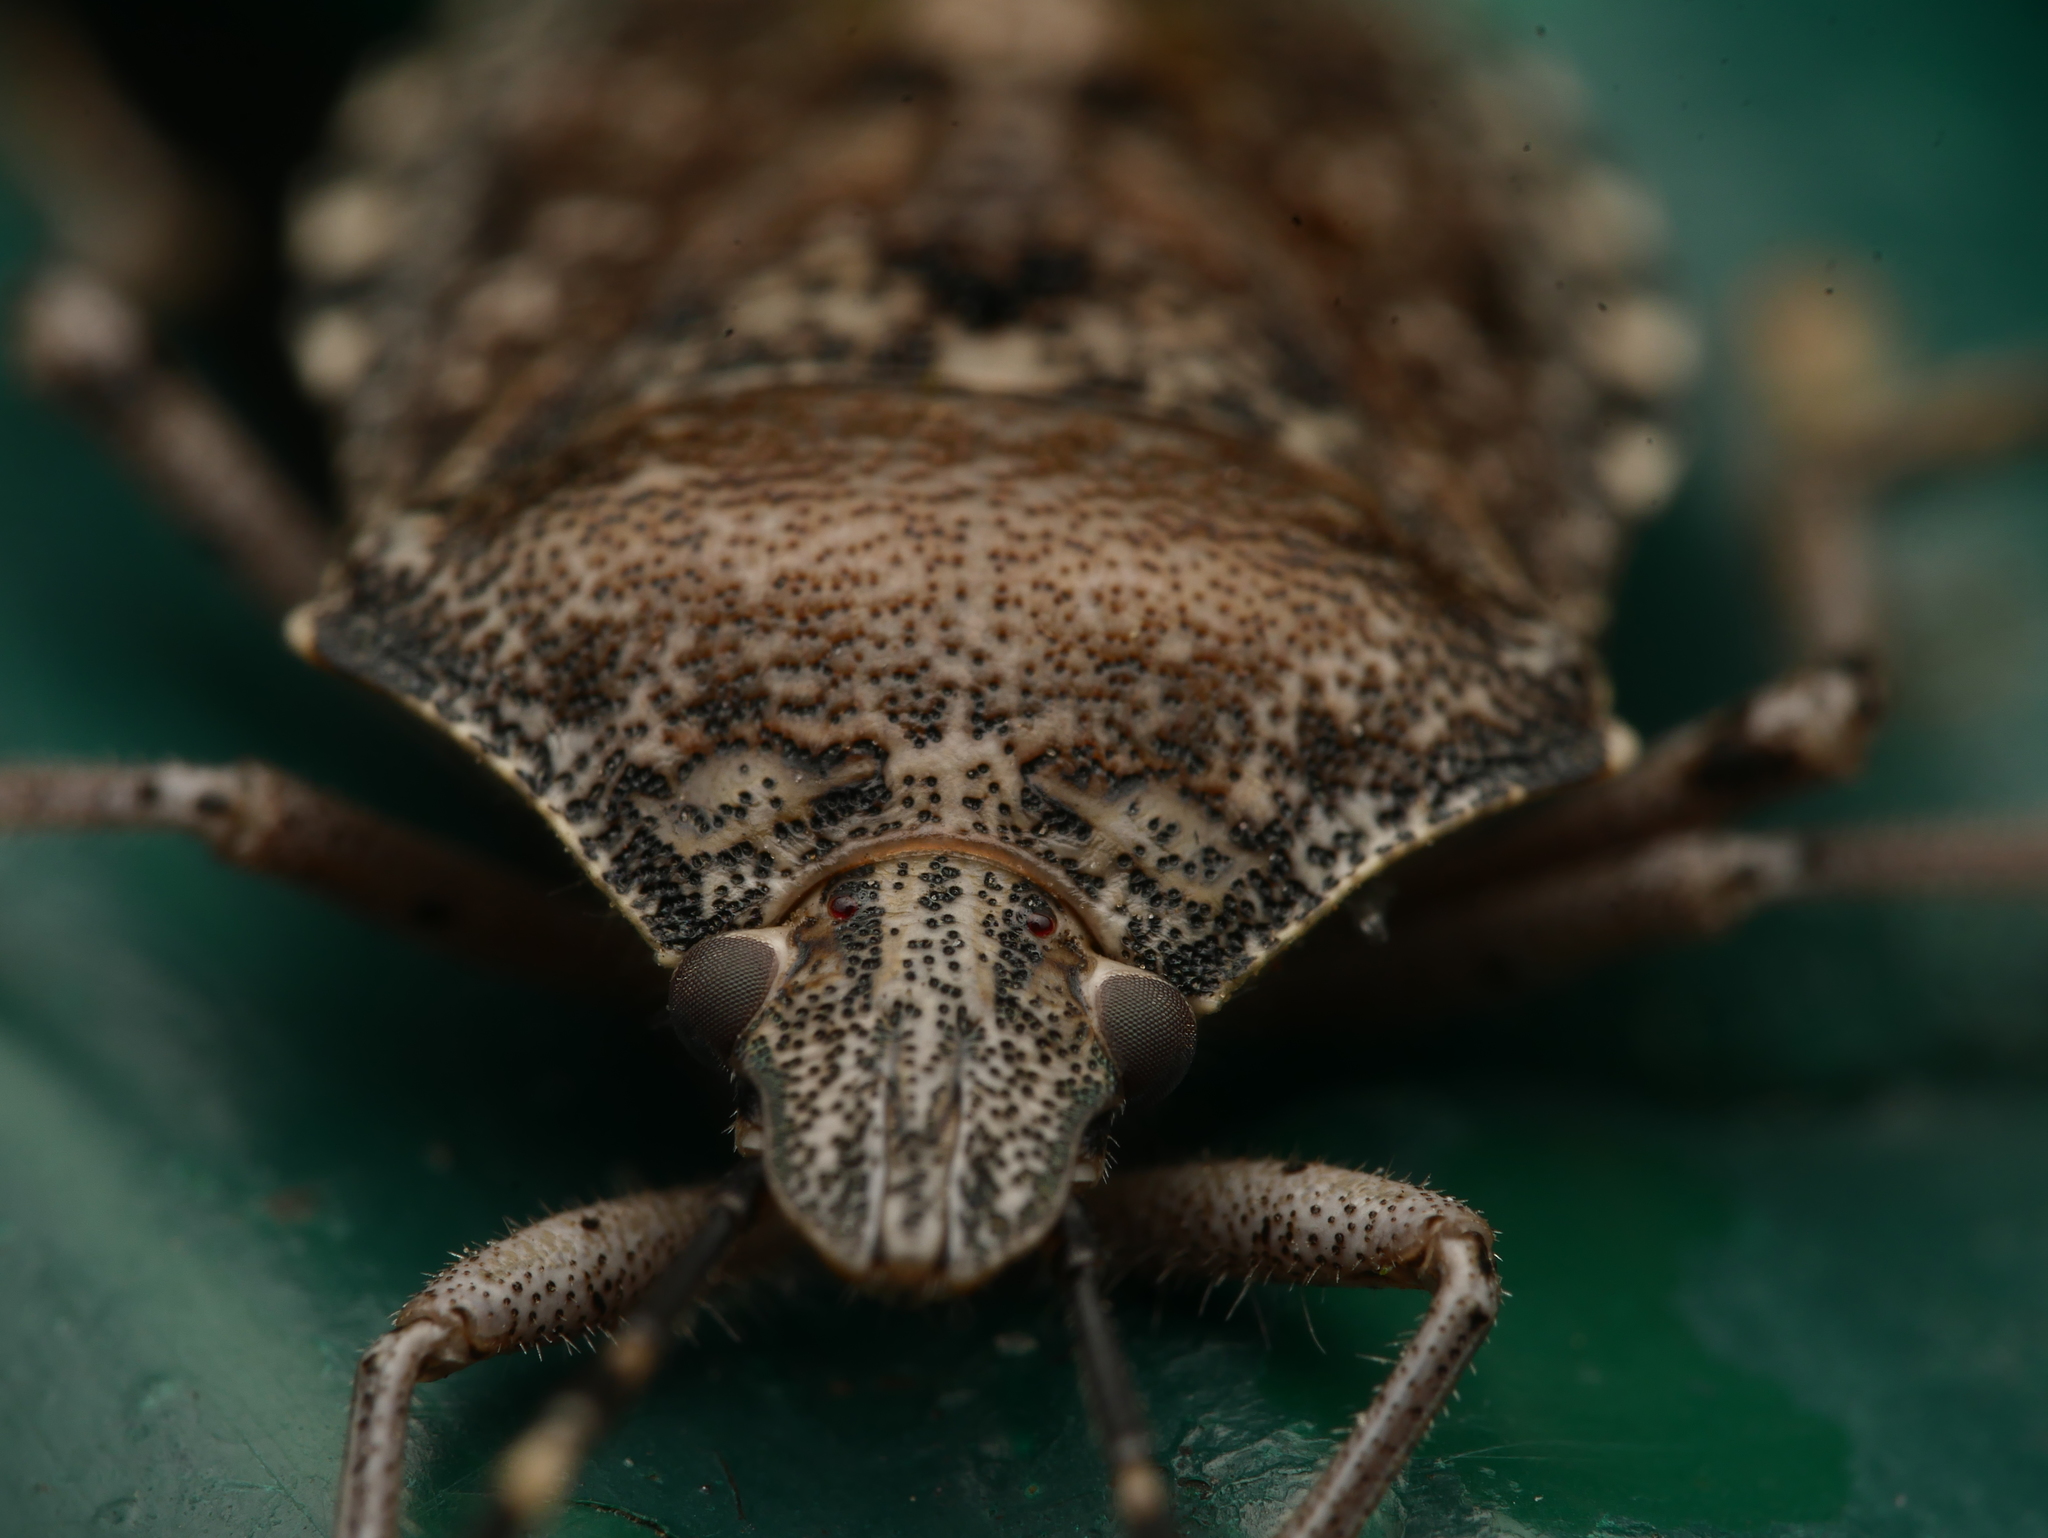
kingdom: Animalia
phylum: Arthropoda
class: Insecta
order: Hemiptera
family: Pentatomidae
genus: Rhaphigaster
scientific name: Rhaphigaster nebulosa
